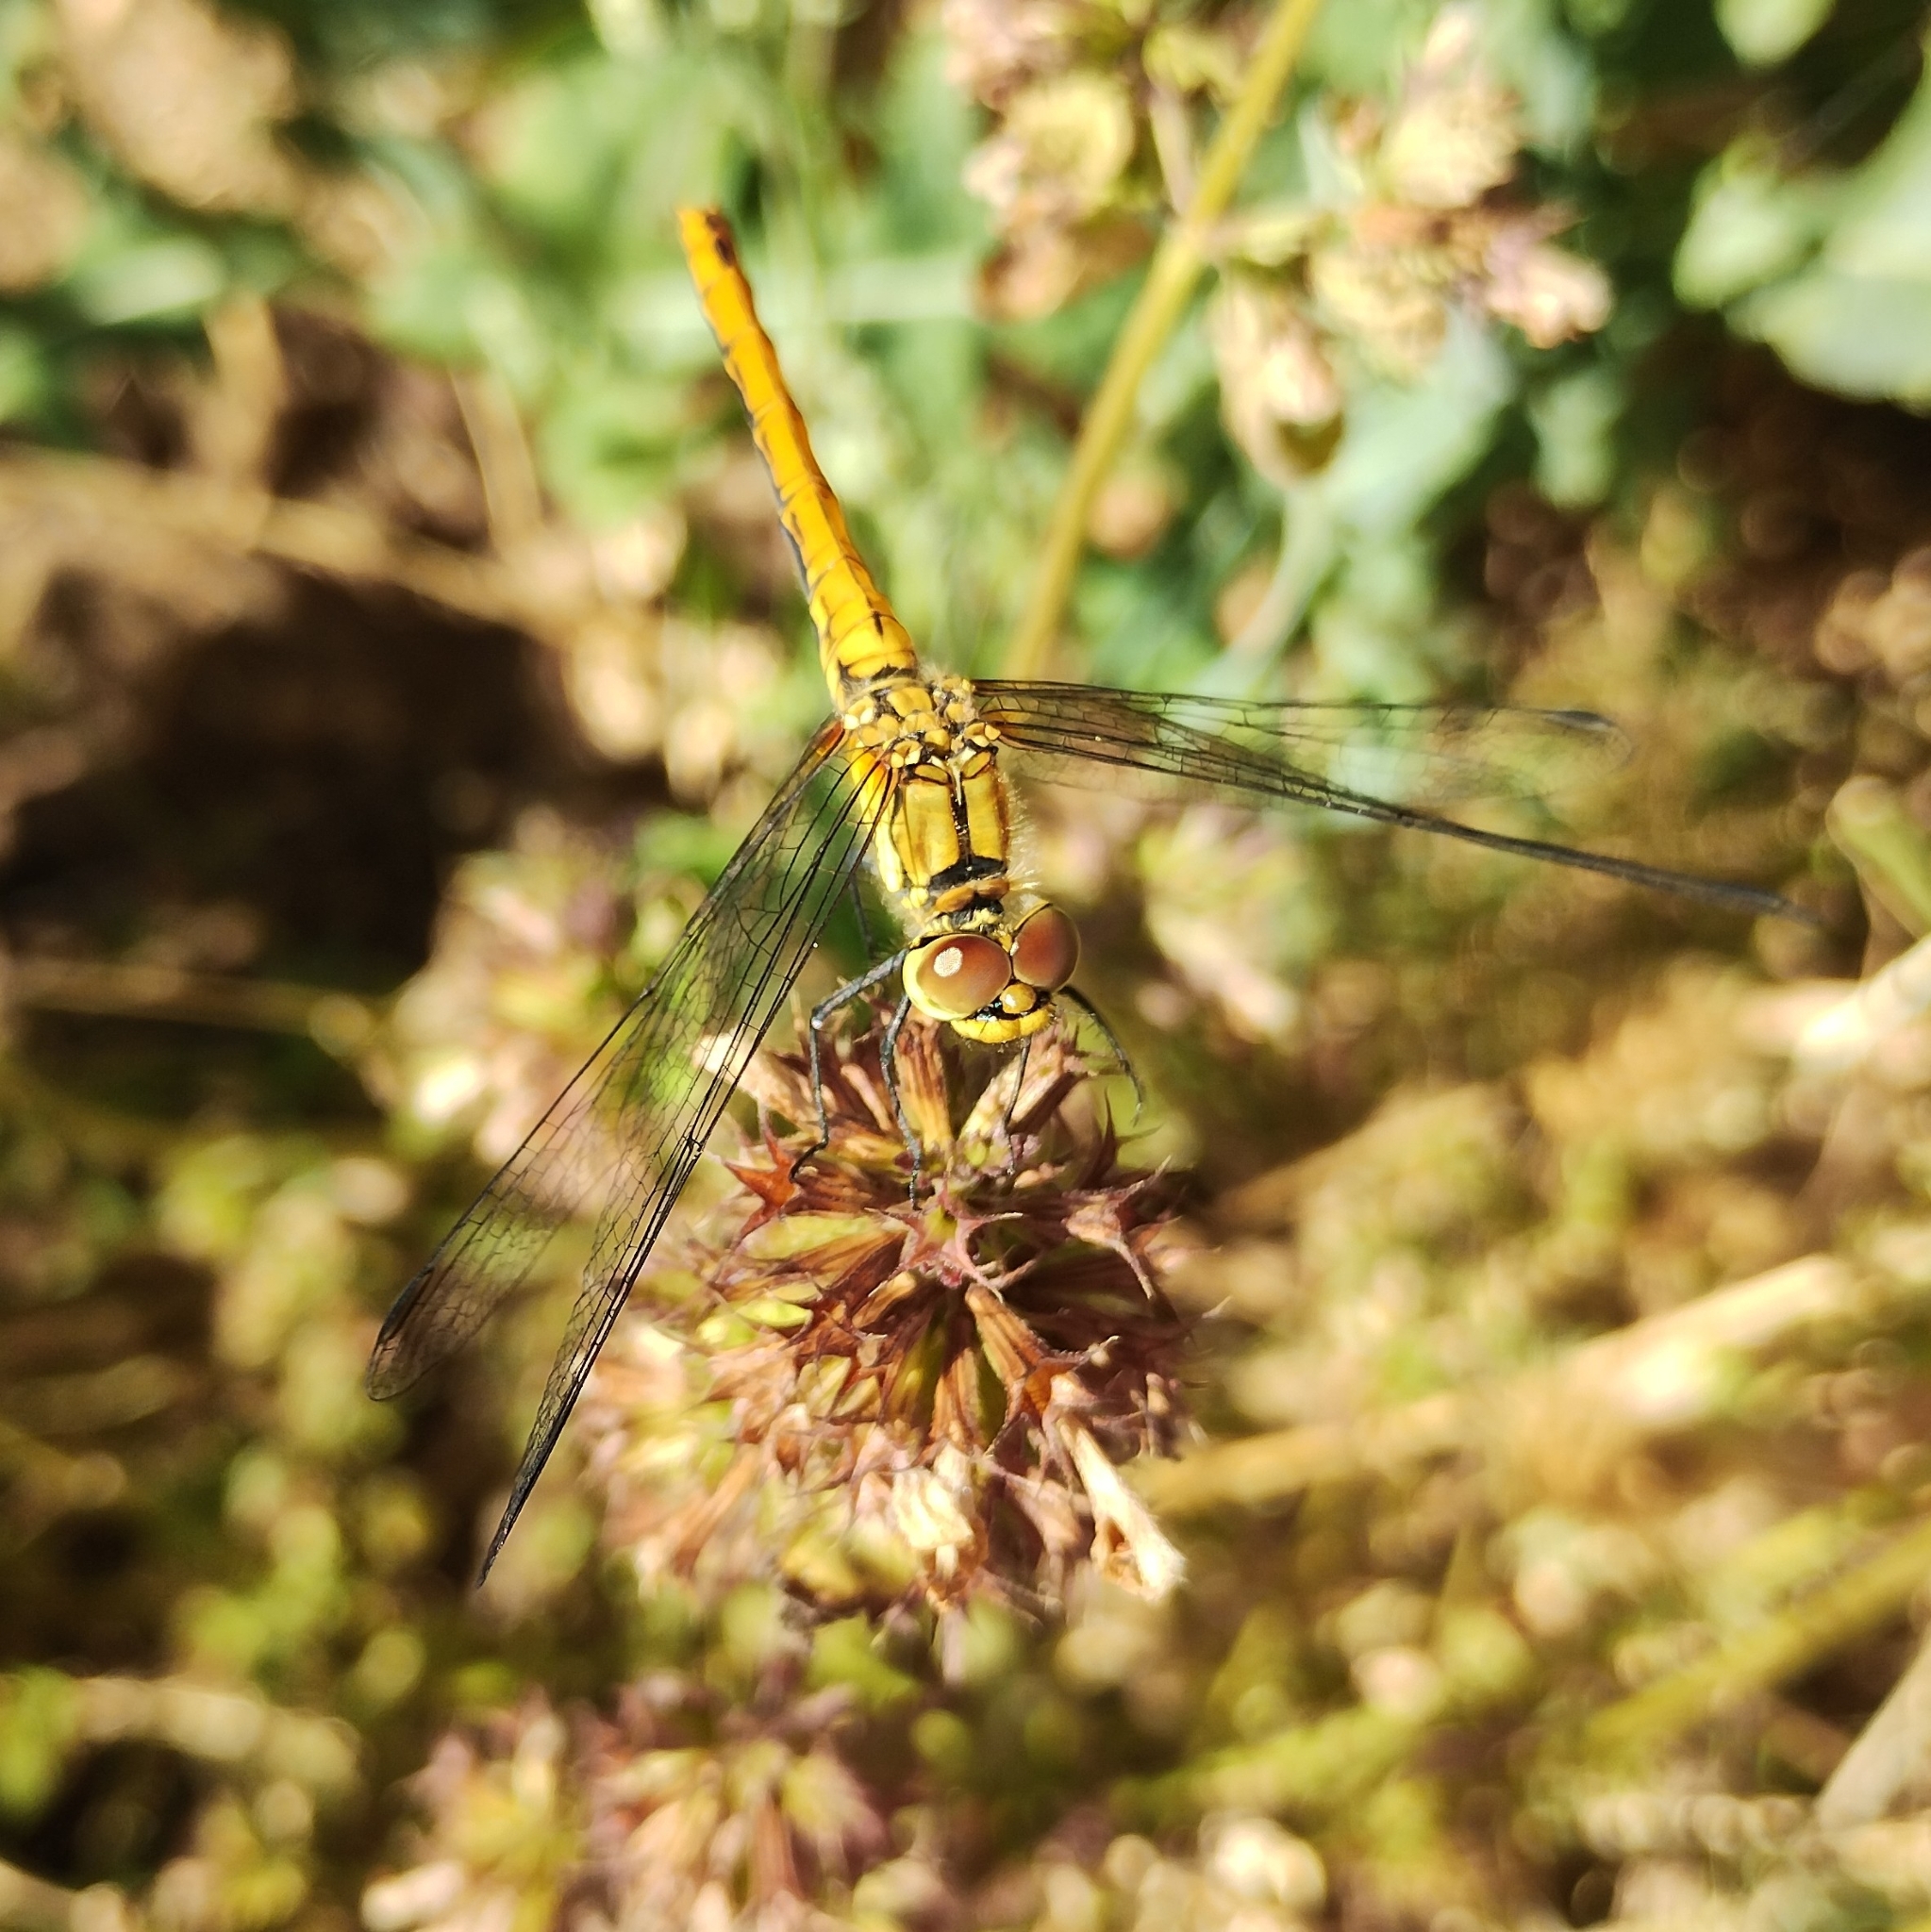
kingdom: Animalia
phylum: Arthropoda
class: Insecta
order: Odonata
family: Libellulidae
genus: Sympetrum
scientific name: Sympetrum sanguineum
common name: Ruddy darter
